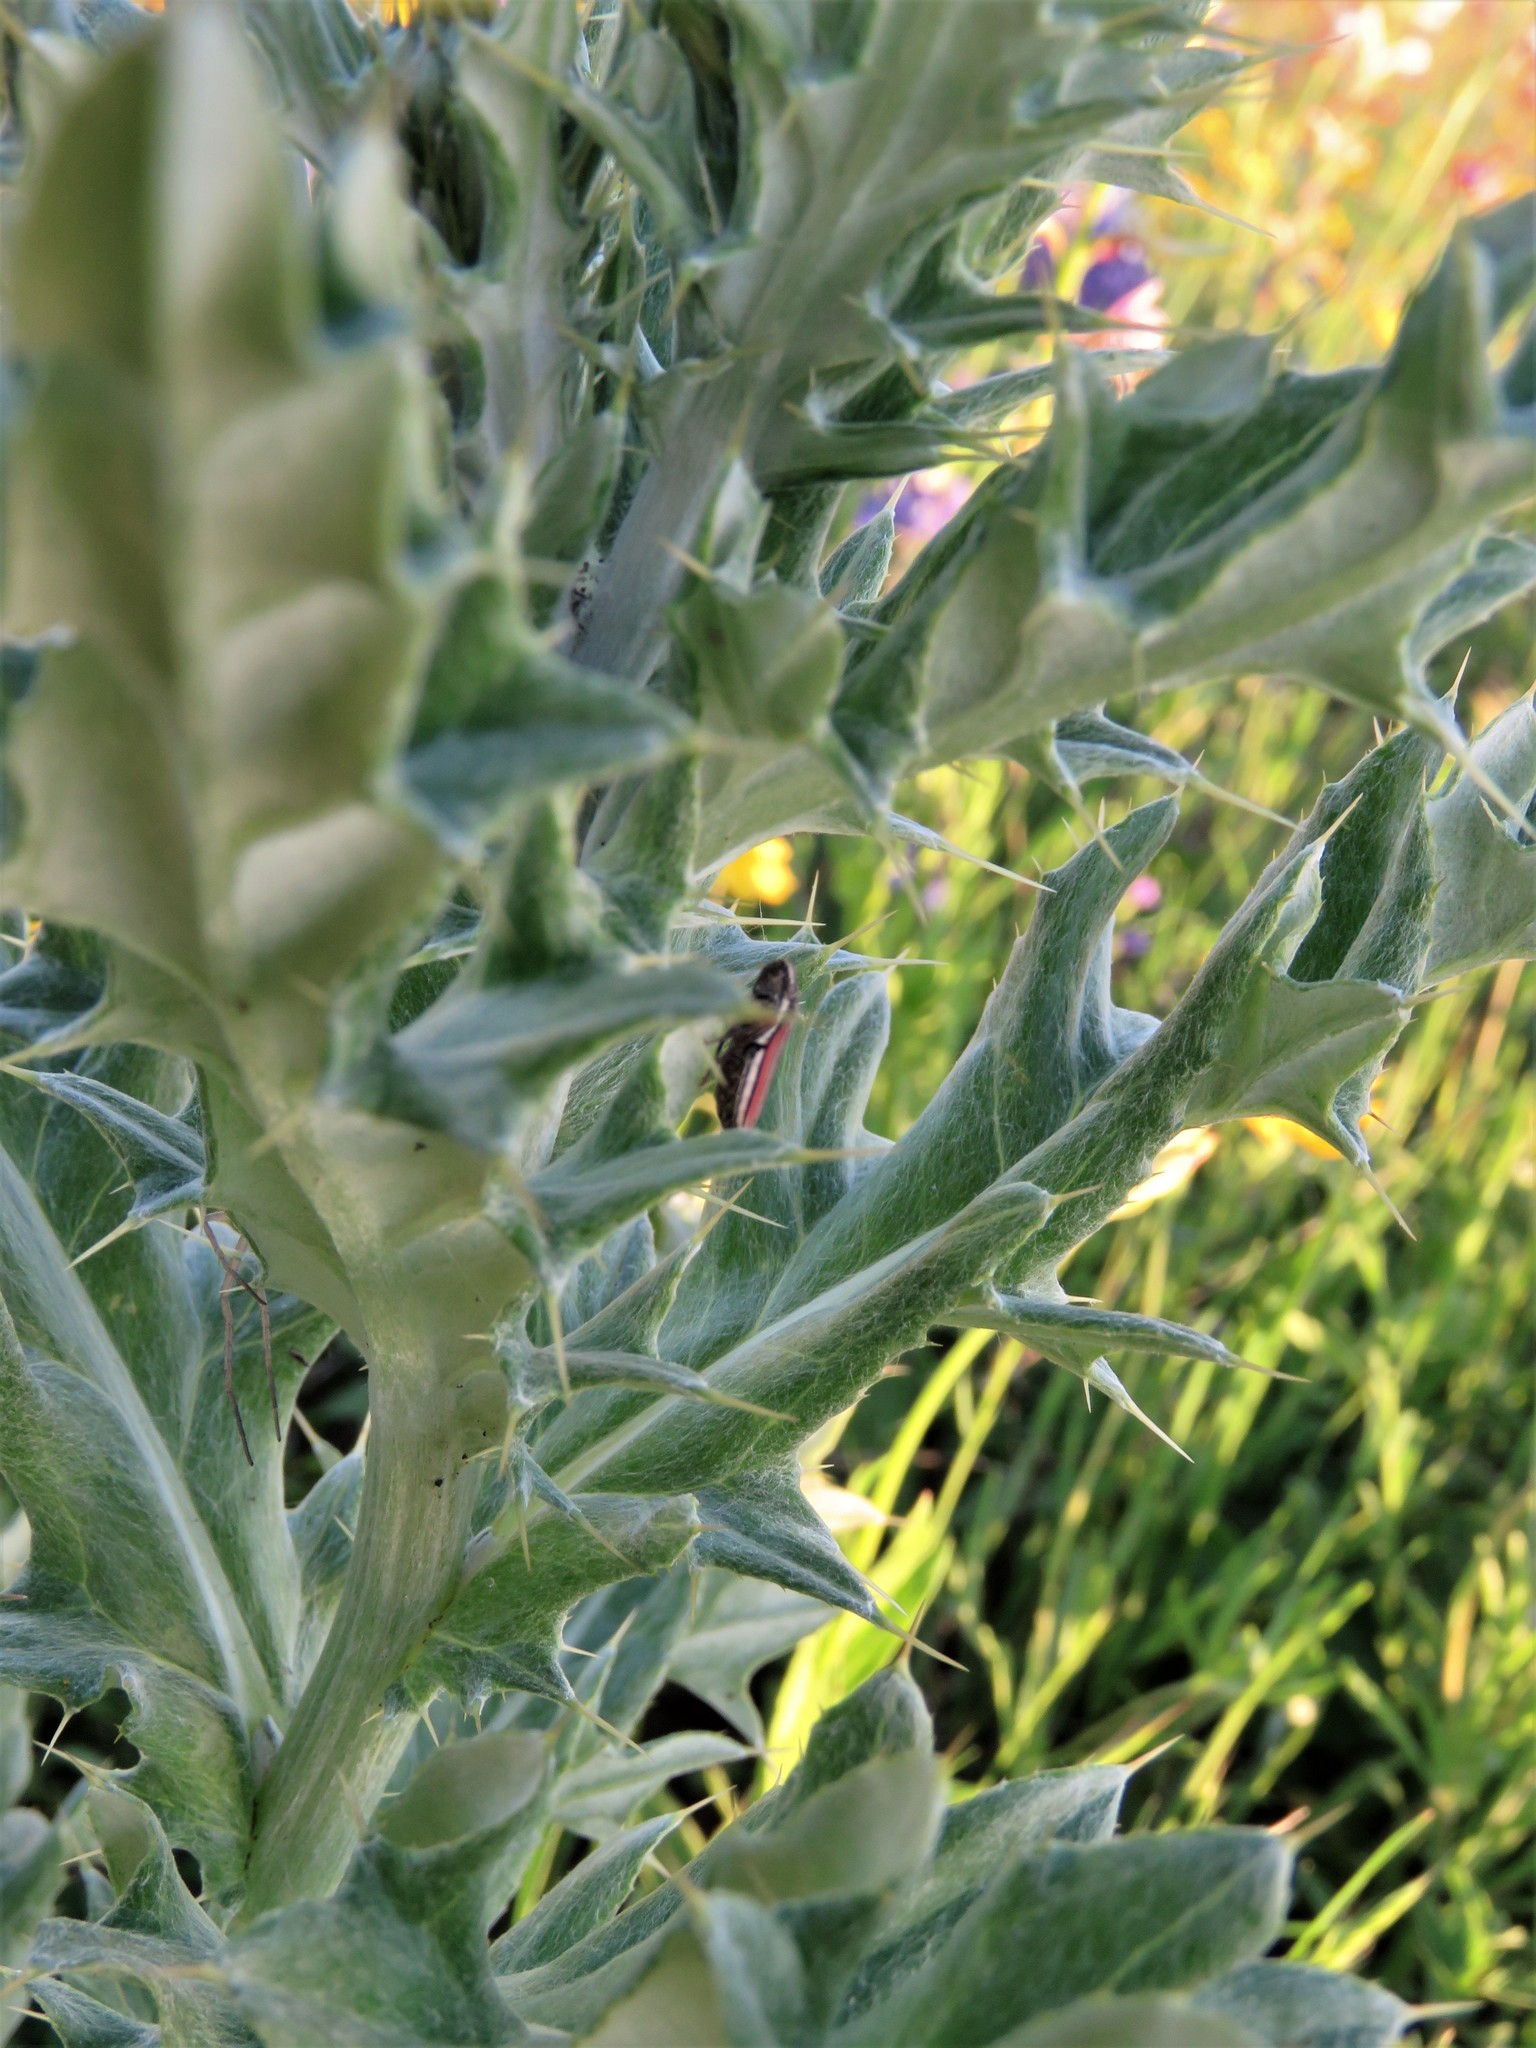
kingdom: Plantae
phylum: Tracheophyta
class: Magnoliopsida
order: Asterales
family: Asteraceae
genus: Cirsium
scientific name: Cirsium undulatum
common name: Pasture thistle
